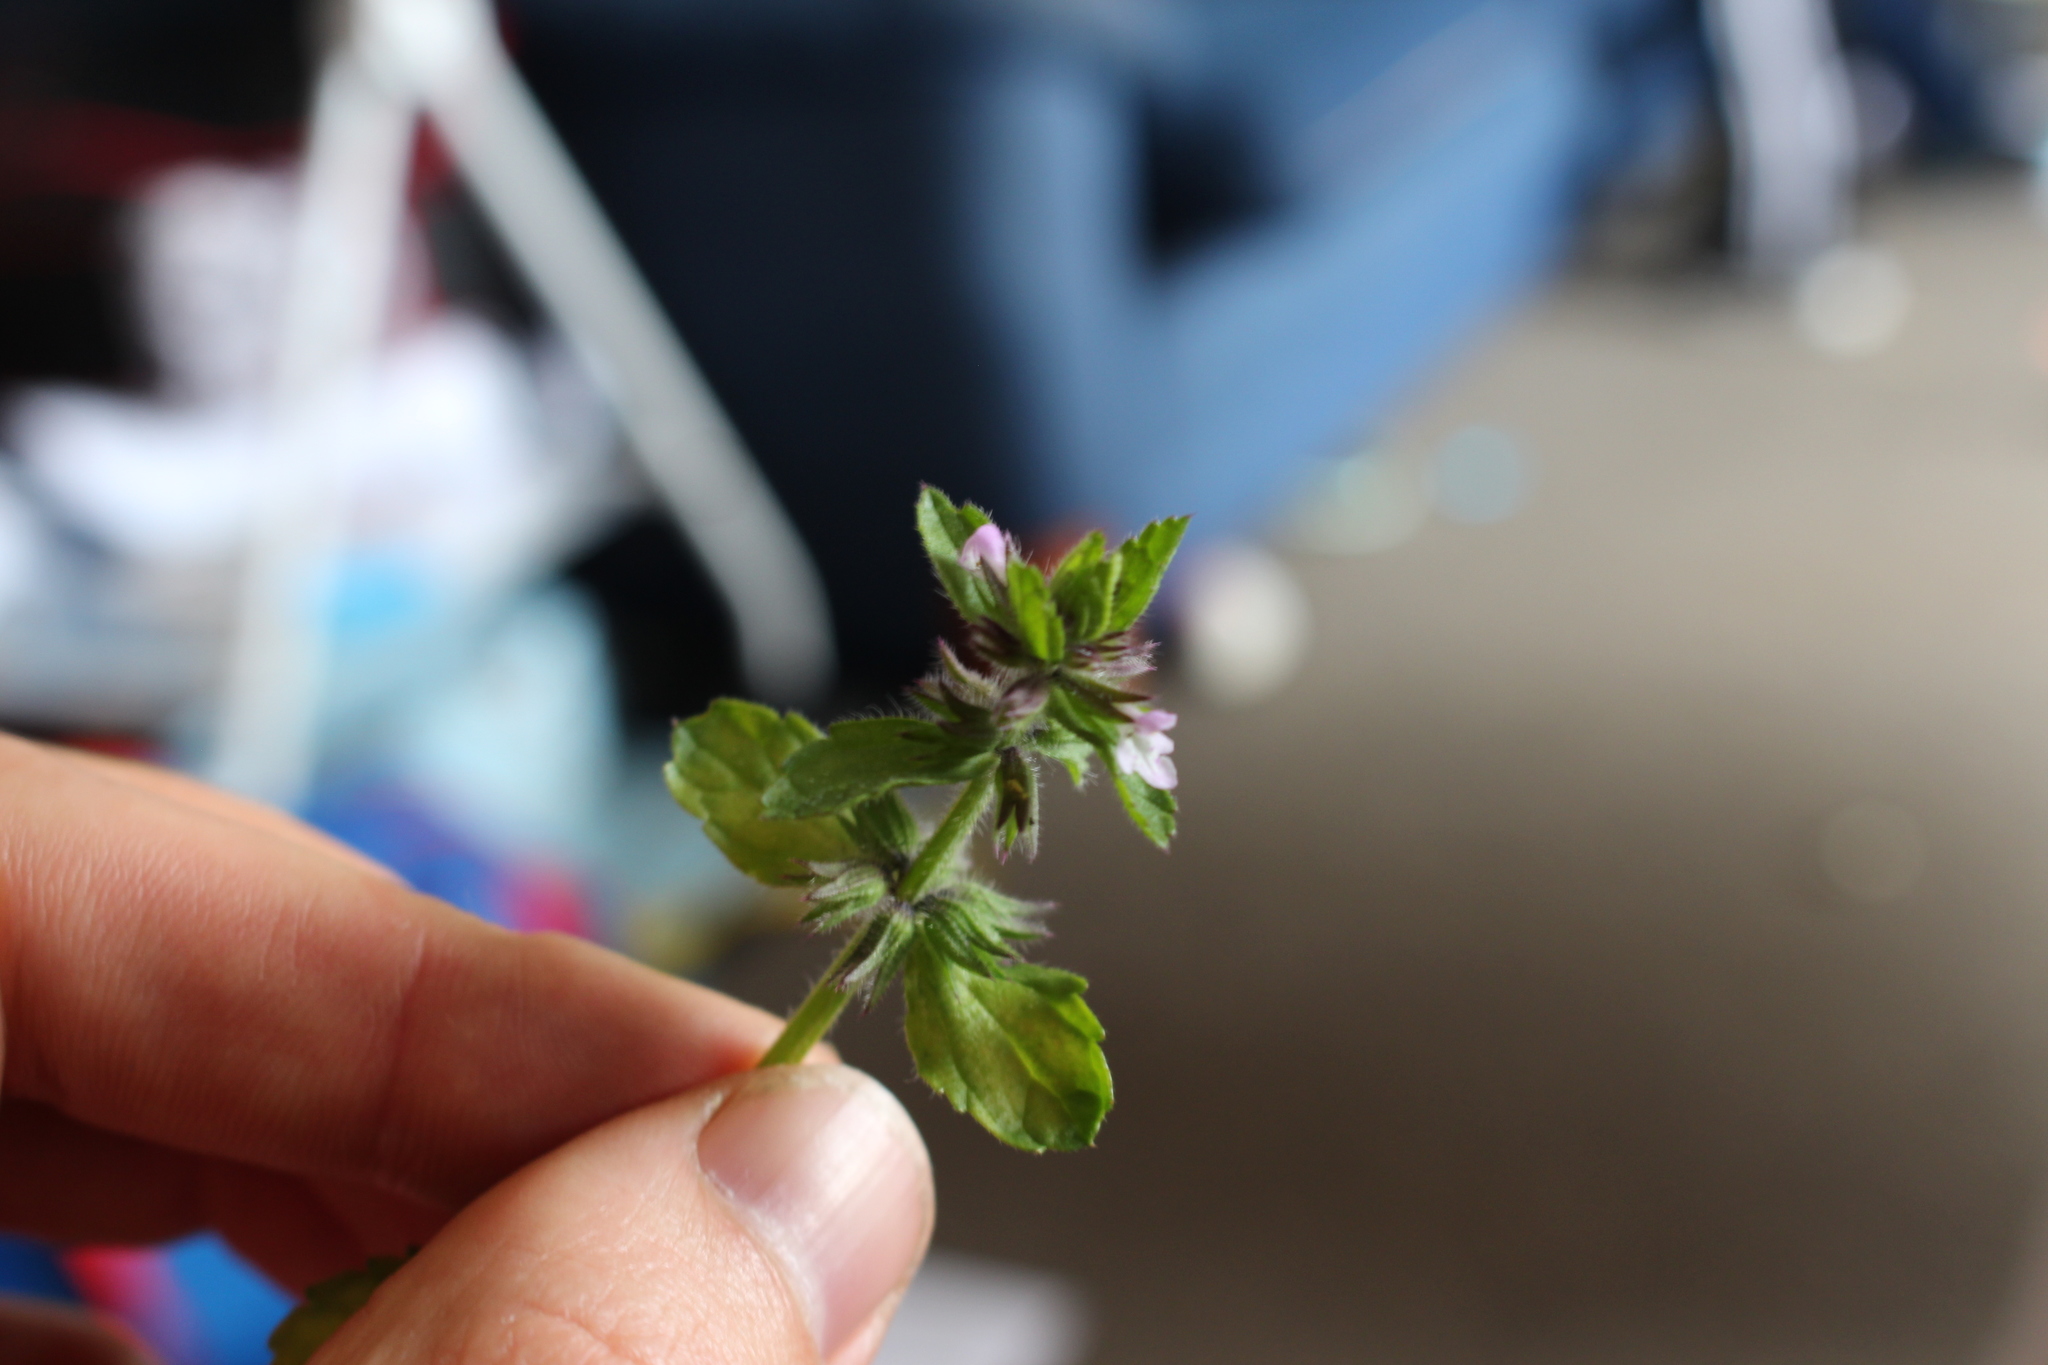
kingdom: Plantae
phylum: Tracheophyta
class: Magnoliopsida
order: Lamiales
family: Lamiaceae
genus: Stachys
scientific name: Stachys arvensis
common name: Field woundwort
